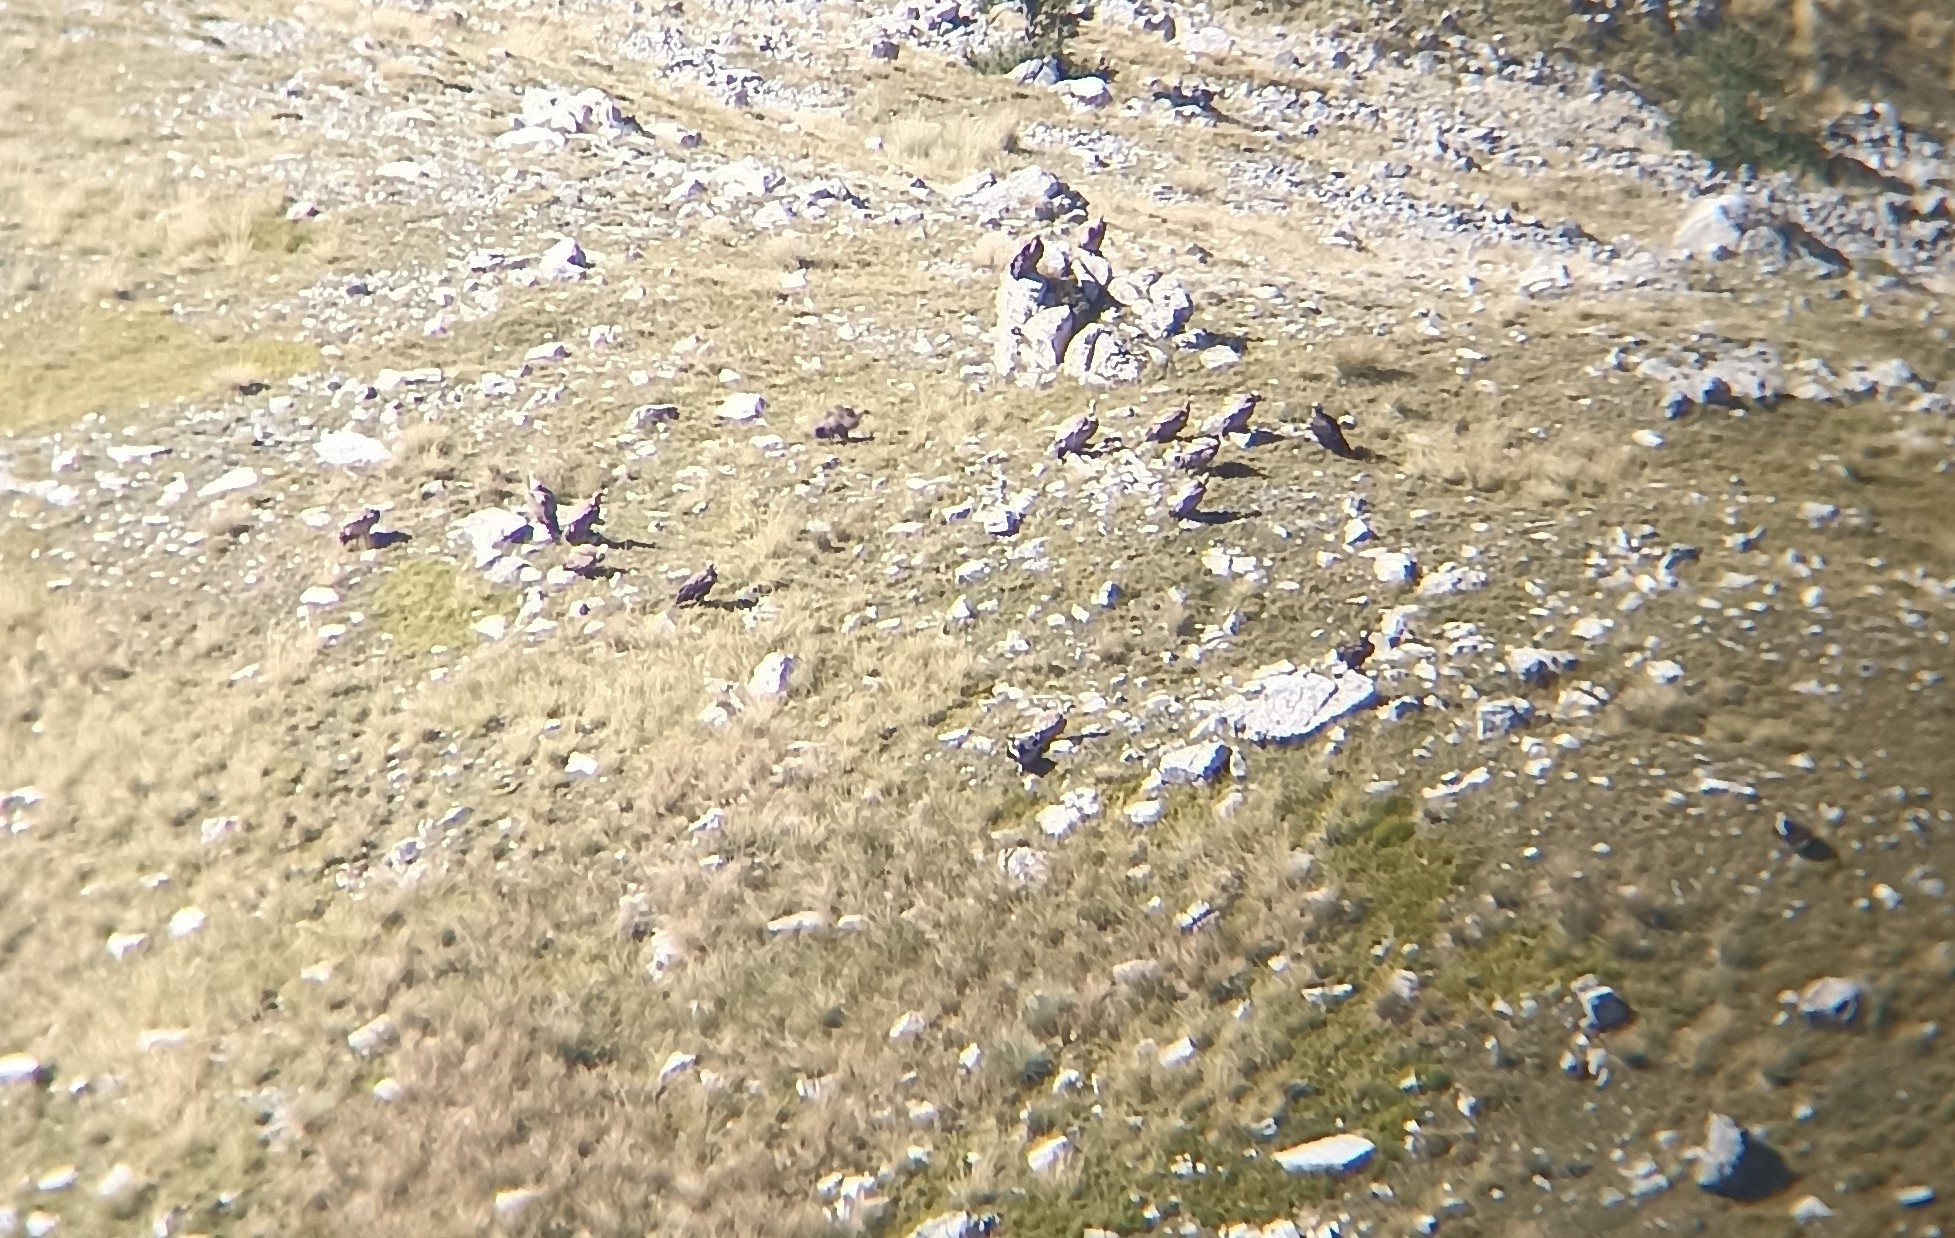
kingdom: Animalia
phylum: Chordata
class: Aves
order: Accipitriformes
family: Accipitridae
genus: Gyps
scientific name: Gyps fulvus
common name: Griffon vulture
